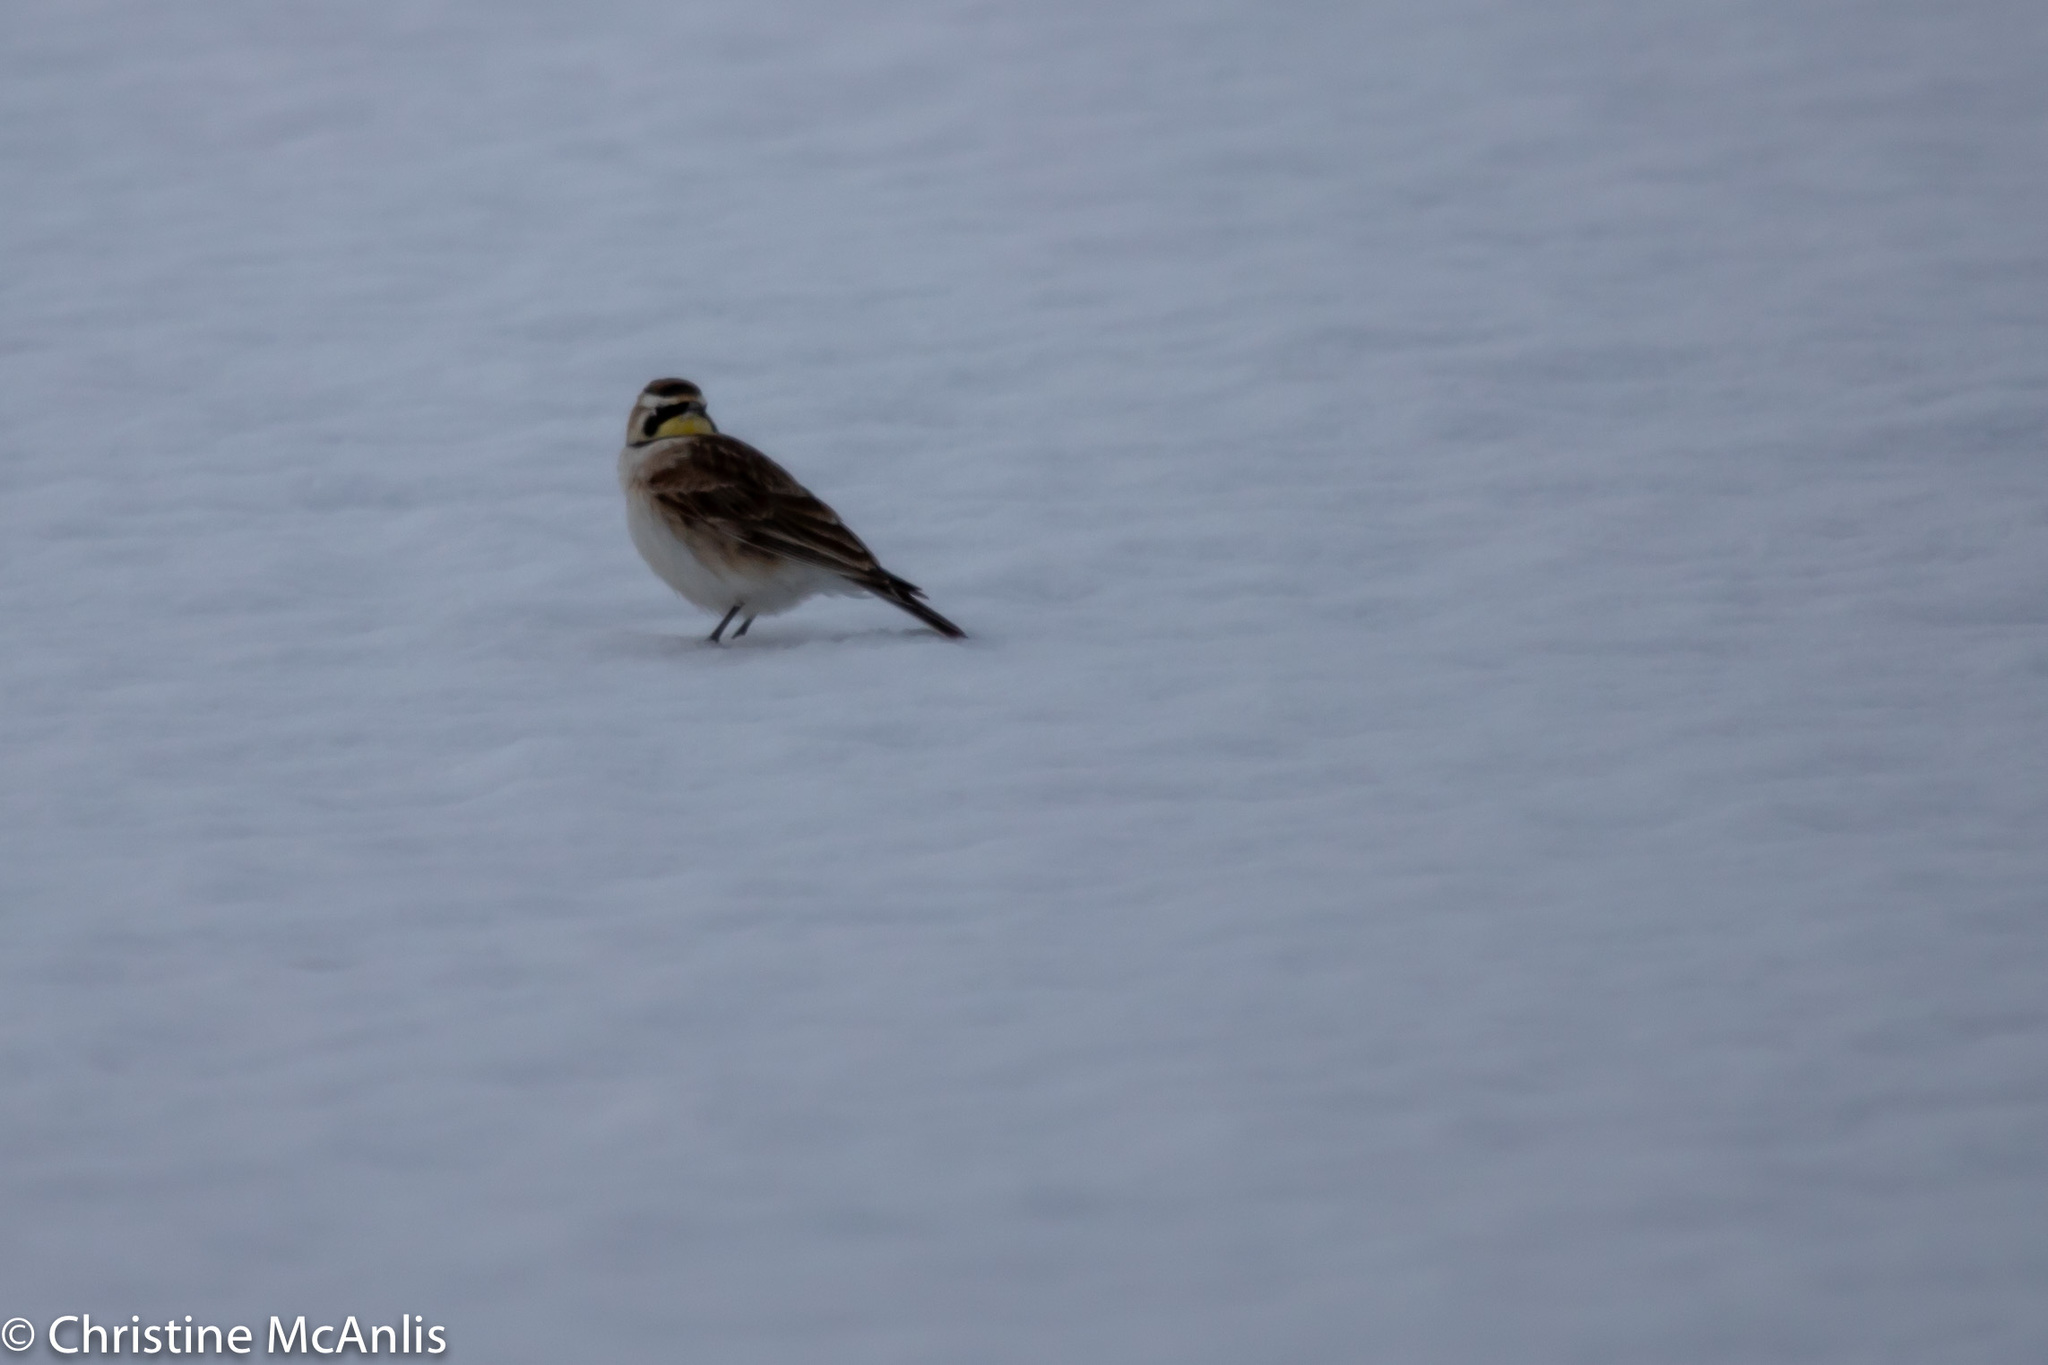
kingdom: Animalia
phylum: Chordata
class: Aves
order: Passeriformes
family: Alaudidae
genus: Eremophila
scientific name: Eremophila alpestris
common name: Horned lark
